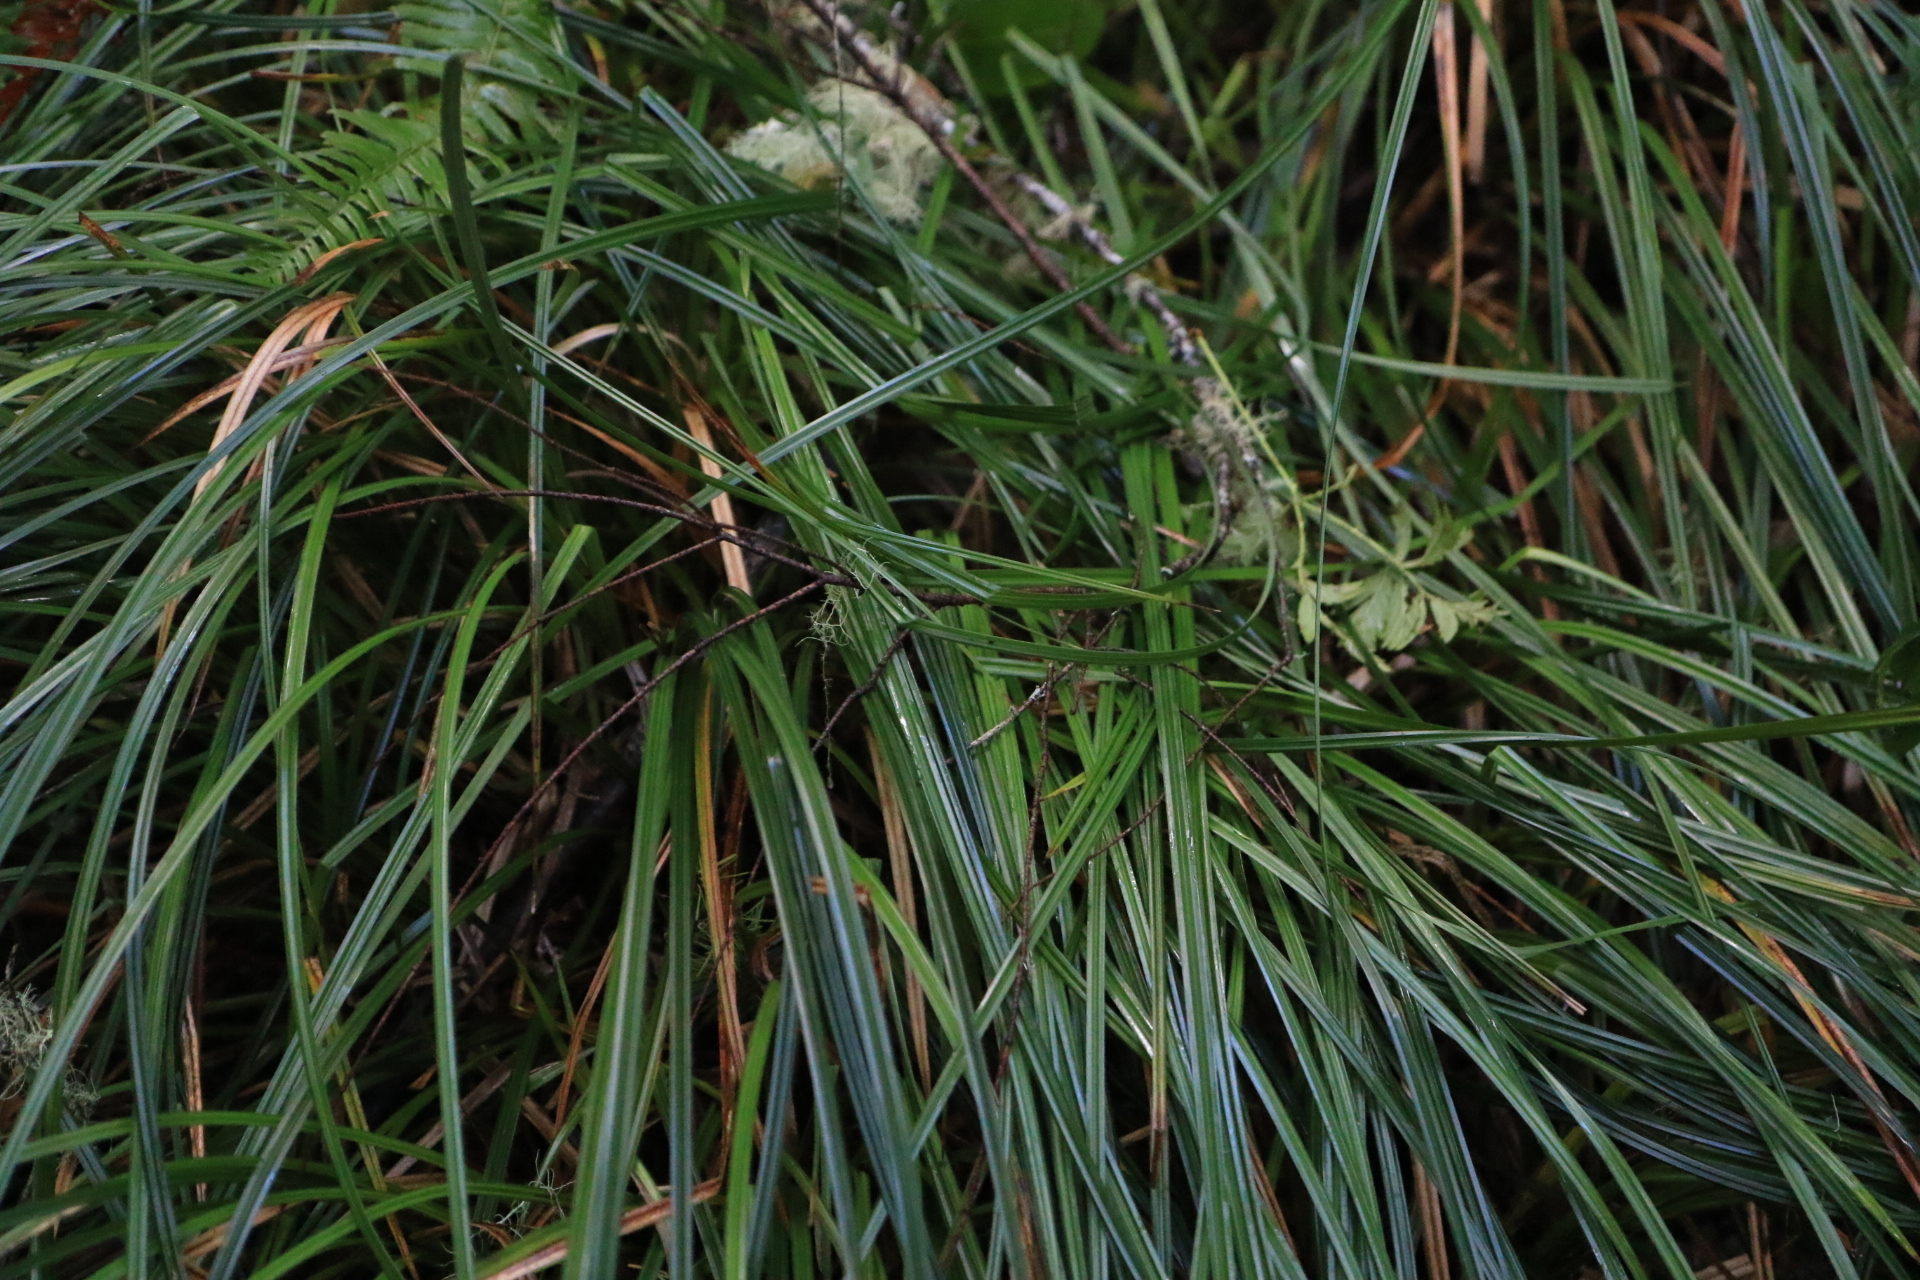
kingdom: Plantae
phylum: Tracheophyta
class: Liliopsida
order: Poales
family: Cyperaceae
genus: Carex
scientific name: Carex obnupta
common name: Slough sedge
